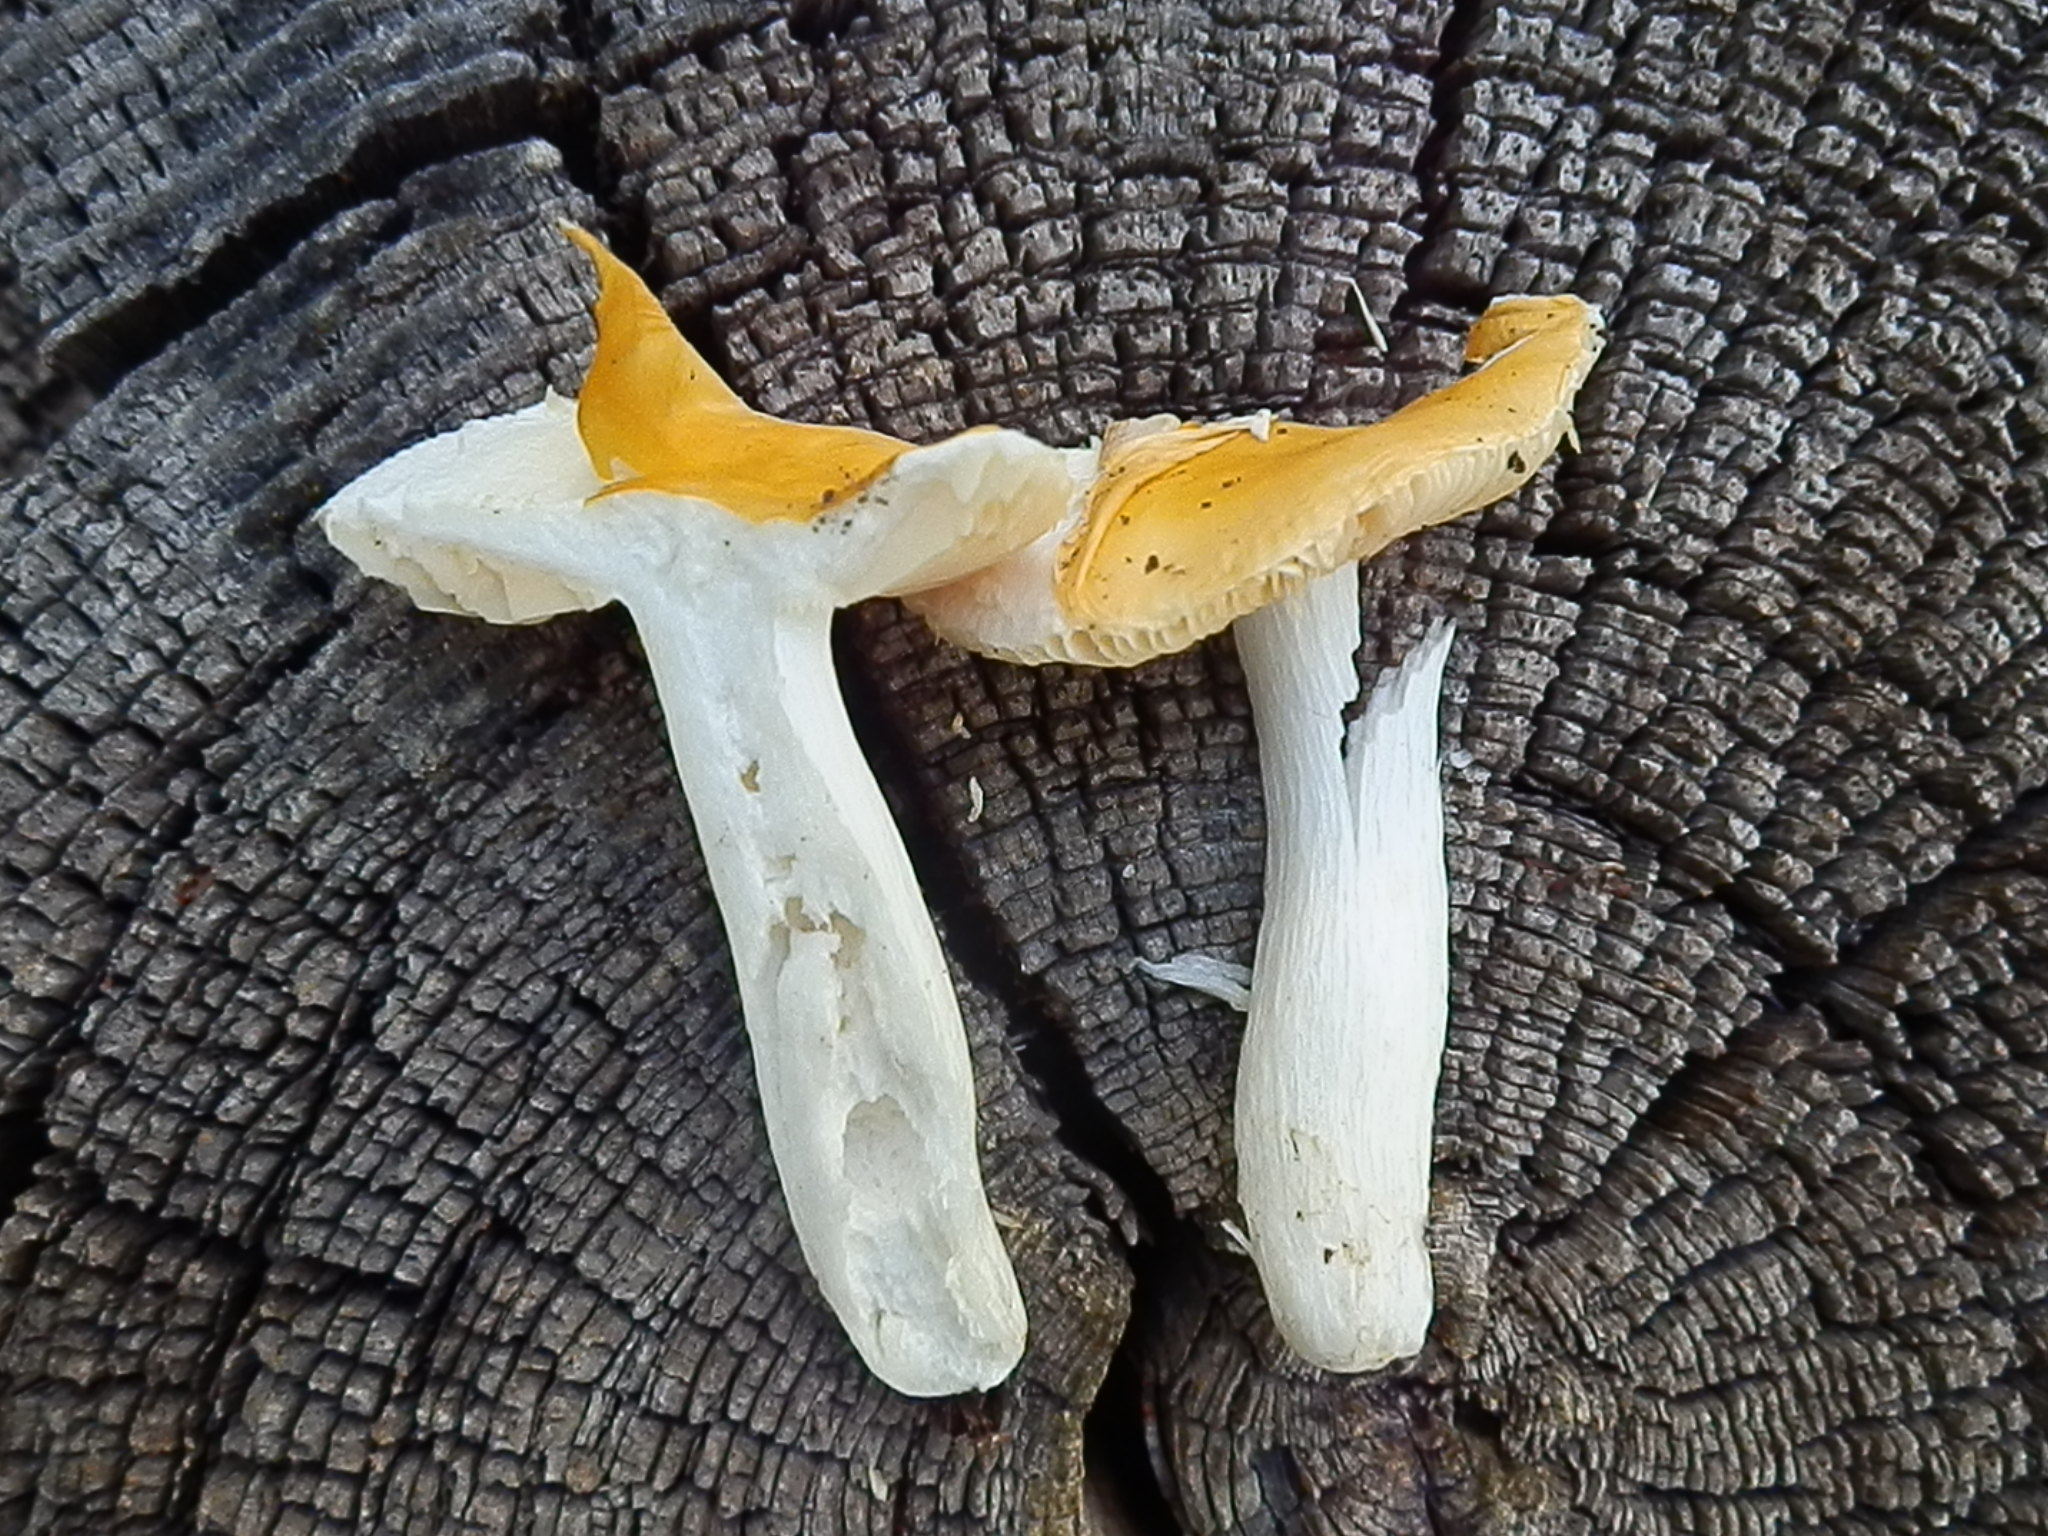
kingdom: Fungi
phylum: Basidiomycota
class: Agaricomycetes
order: Russulales
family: Russulaceae
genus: Russula
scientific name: Russula risigallina
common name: Golden brittlegill
